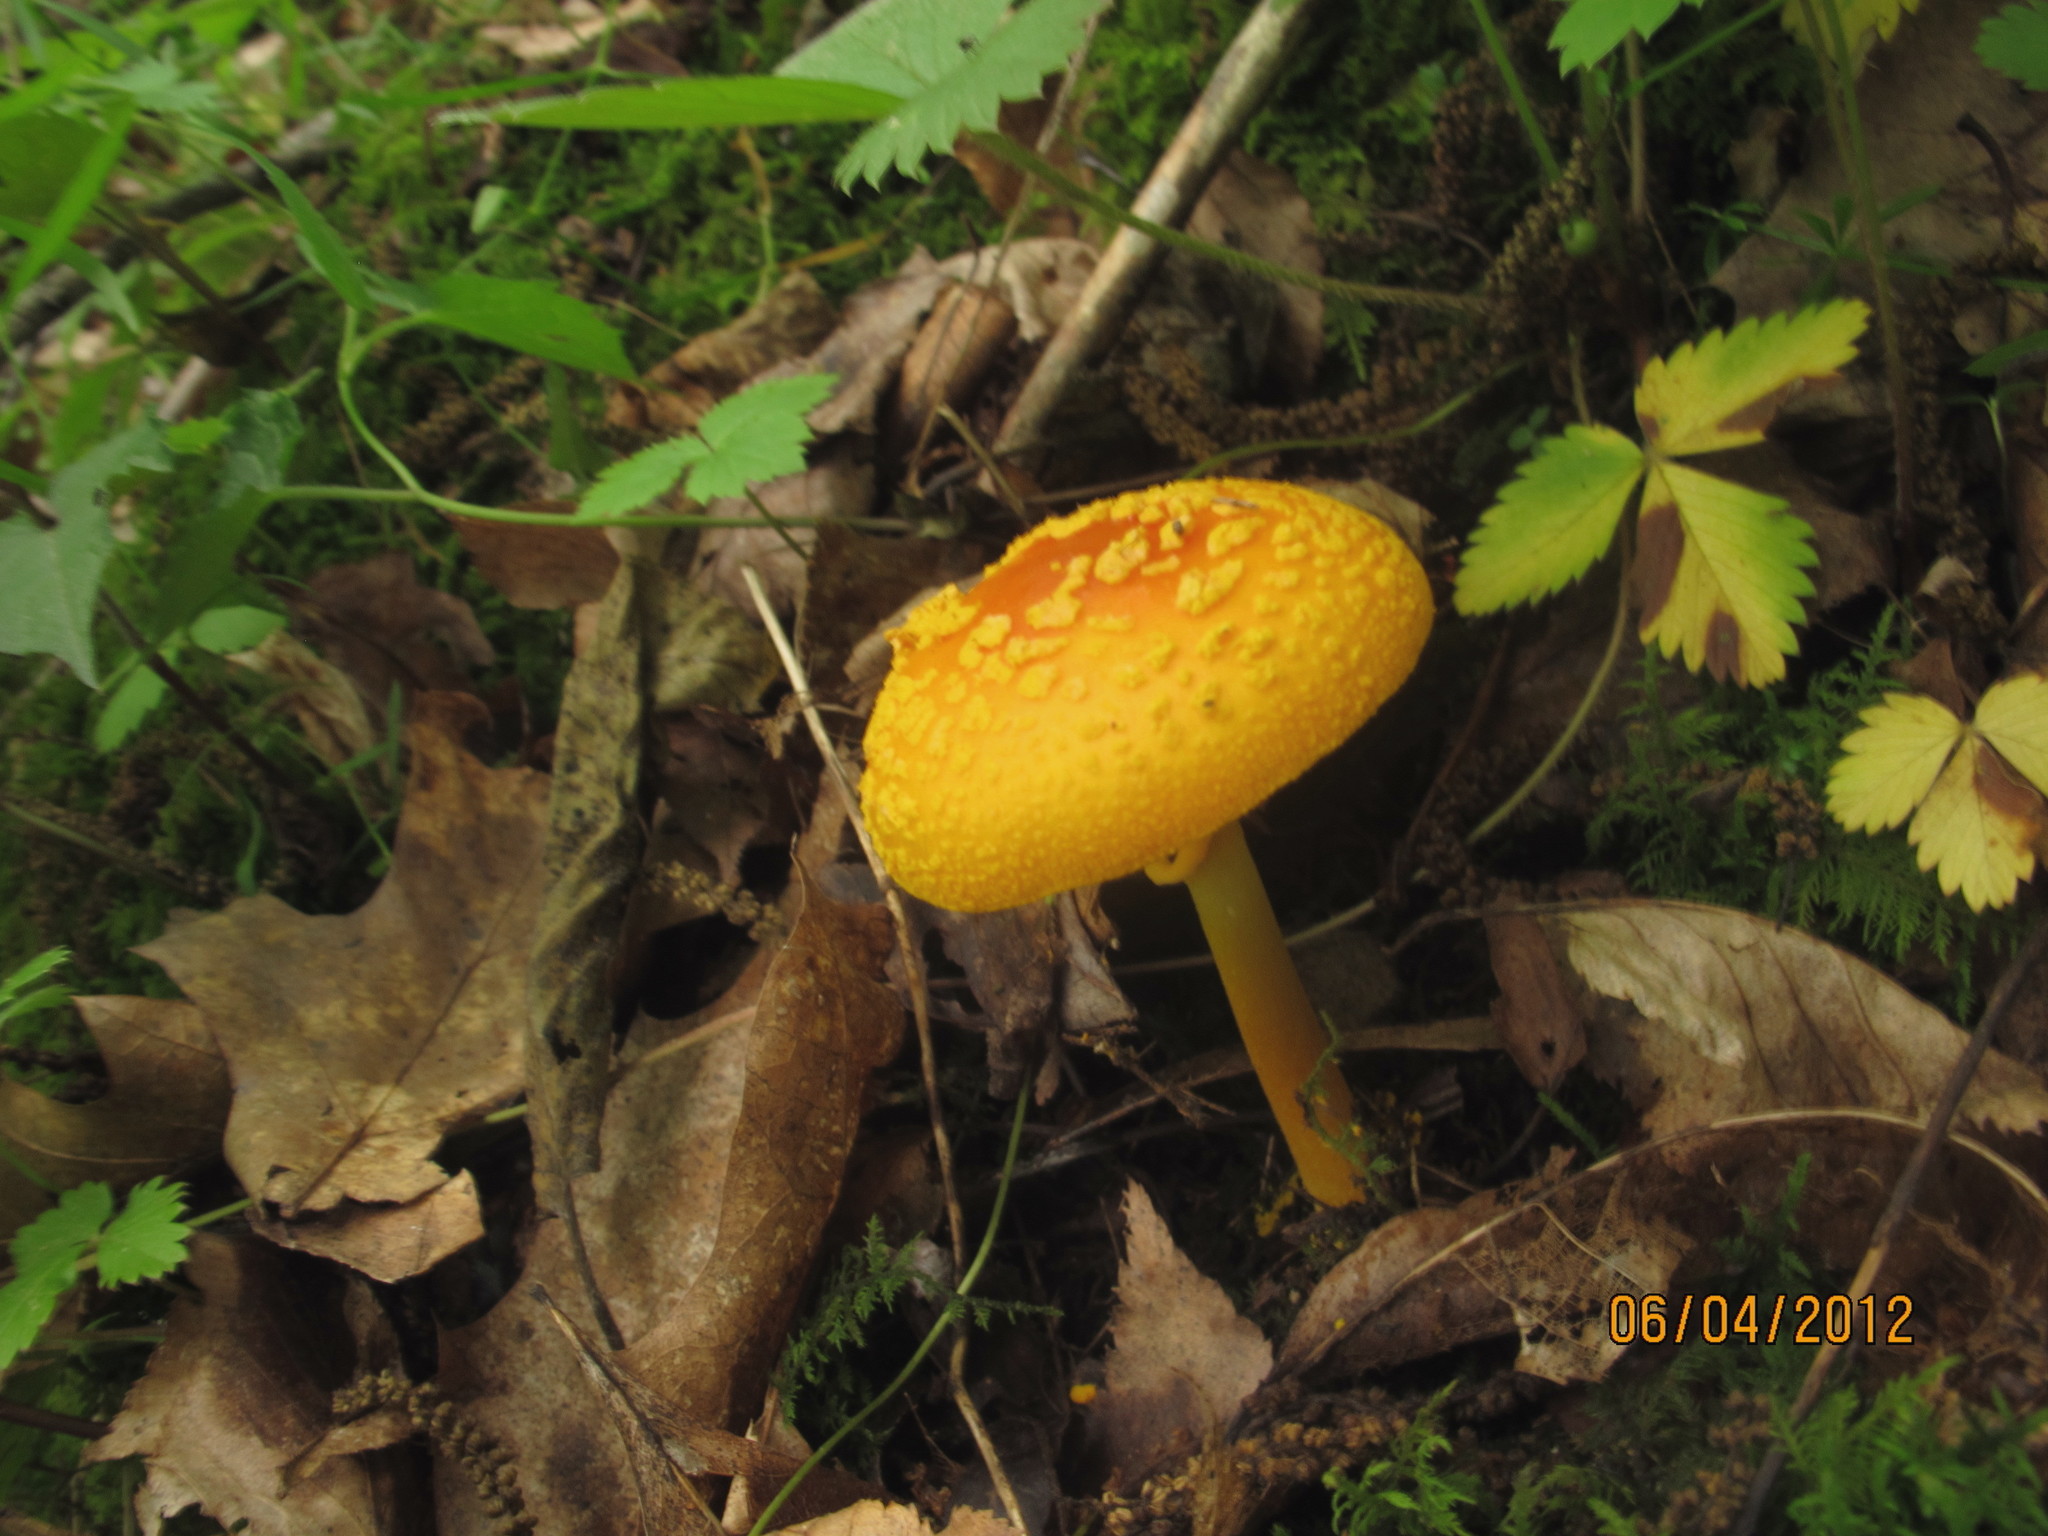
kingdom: Fungi
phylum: Basidiomycota
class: Agaricomycetes
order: Agaricales
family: Amanitaceae
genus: Amanita
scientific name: Amanita flavoconia
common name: Yellow patches
